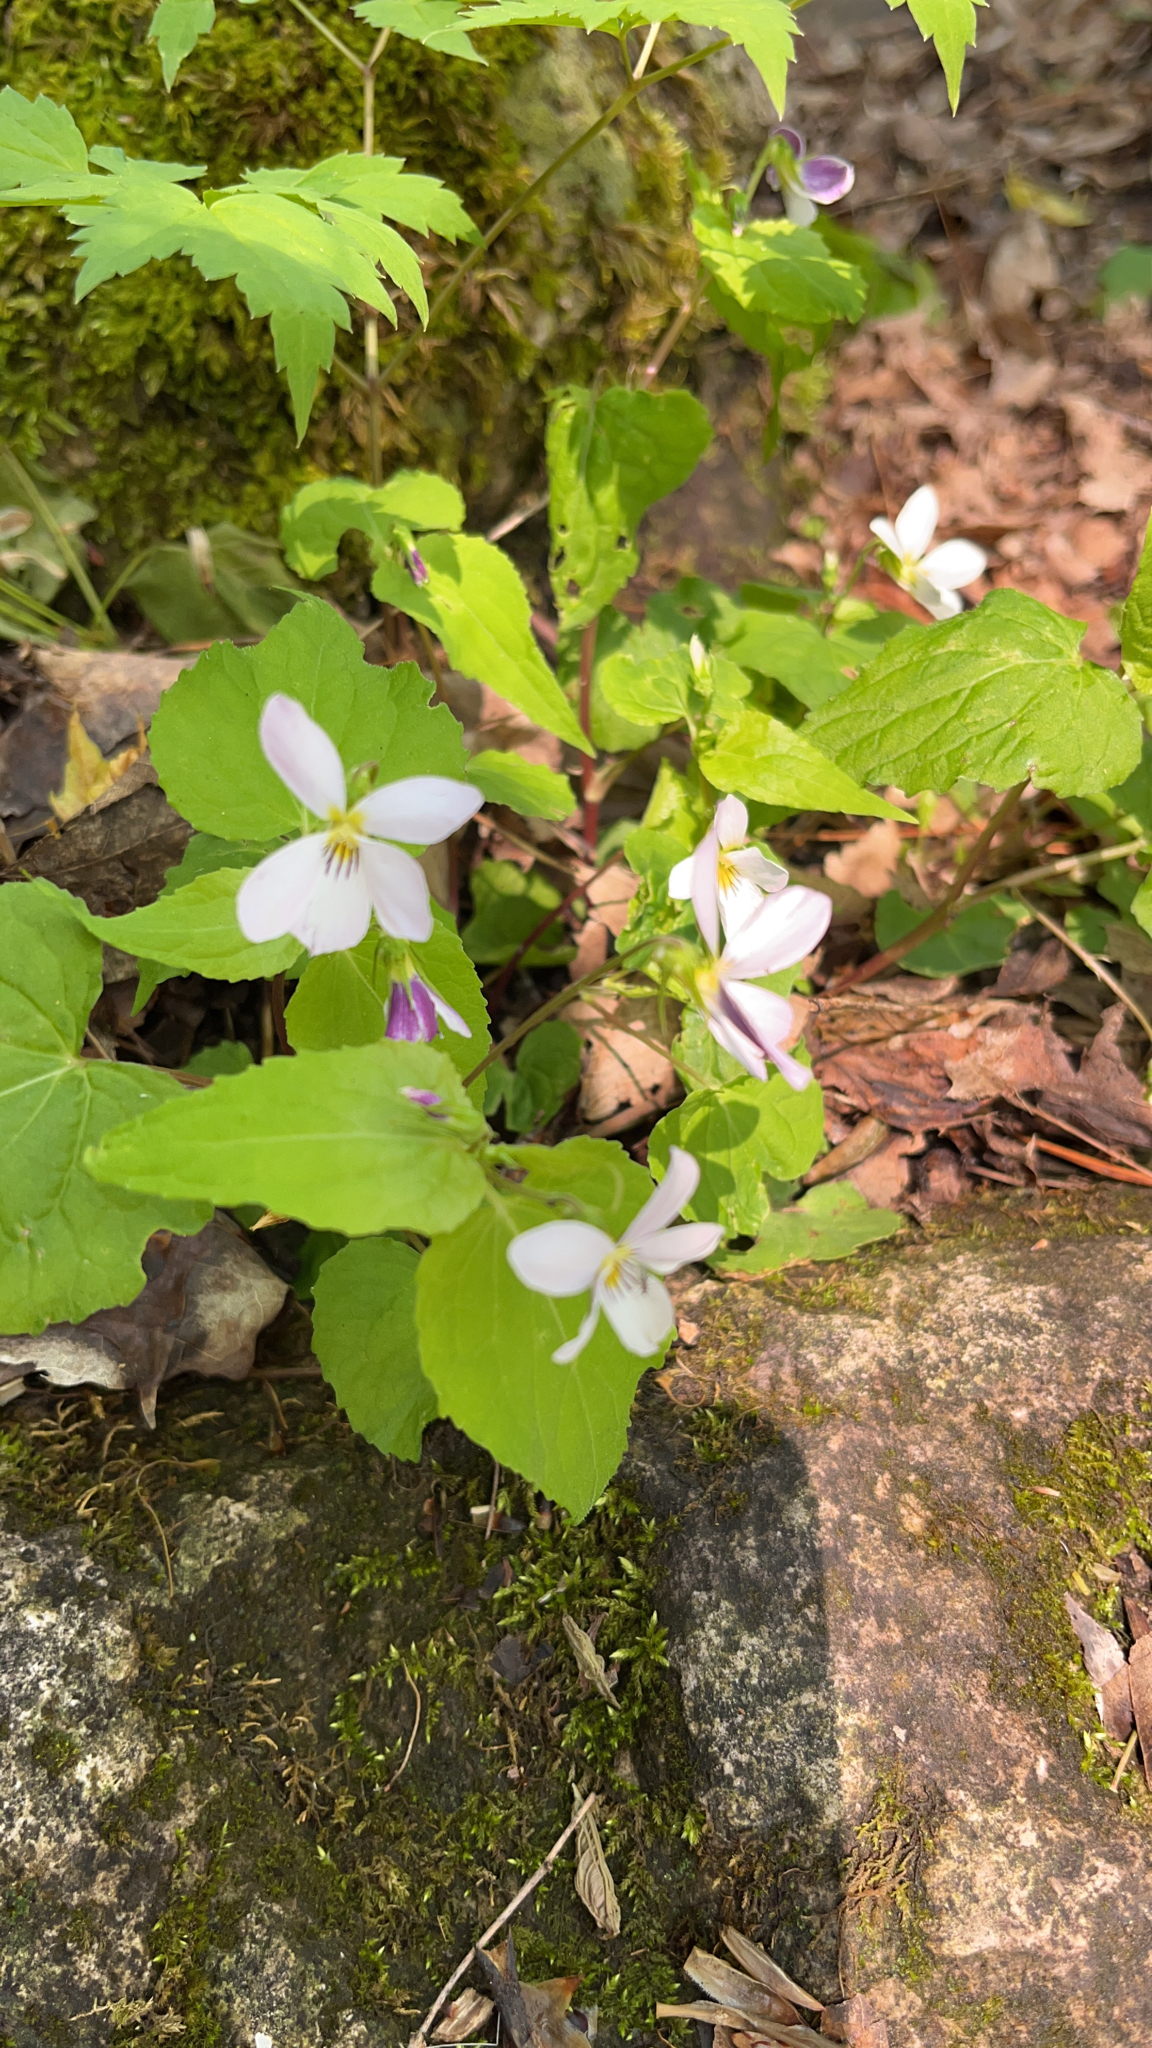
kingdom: Plantae
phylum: Tracheophyta
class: Magnoliopsida
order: Malpighiales
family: Violaceae
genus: Viola
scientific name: Viola canadensis
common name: Canada violet
